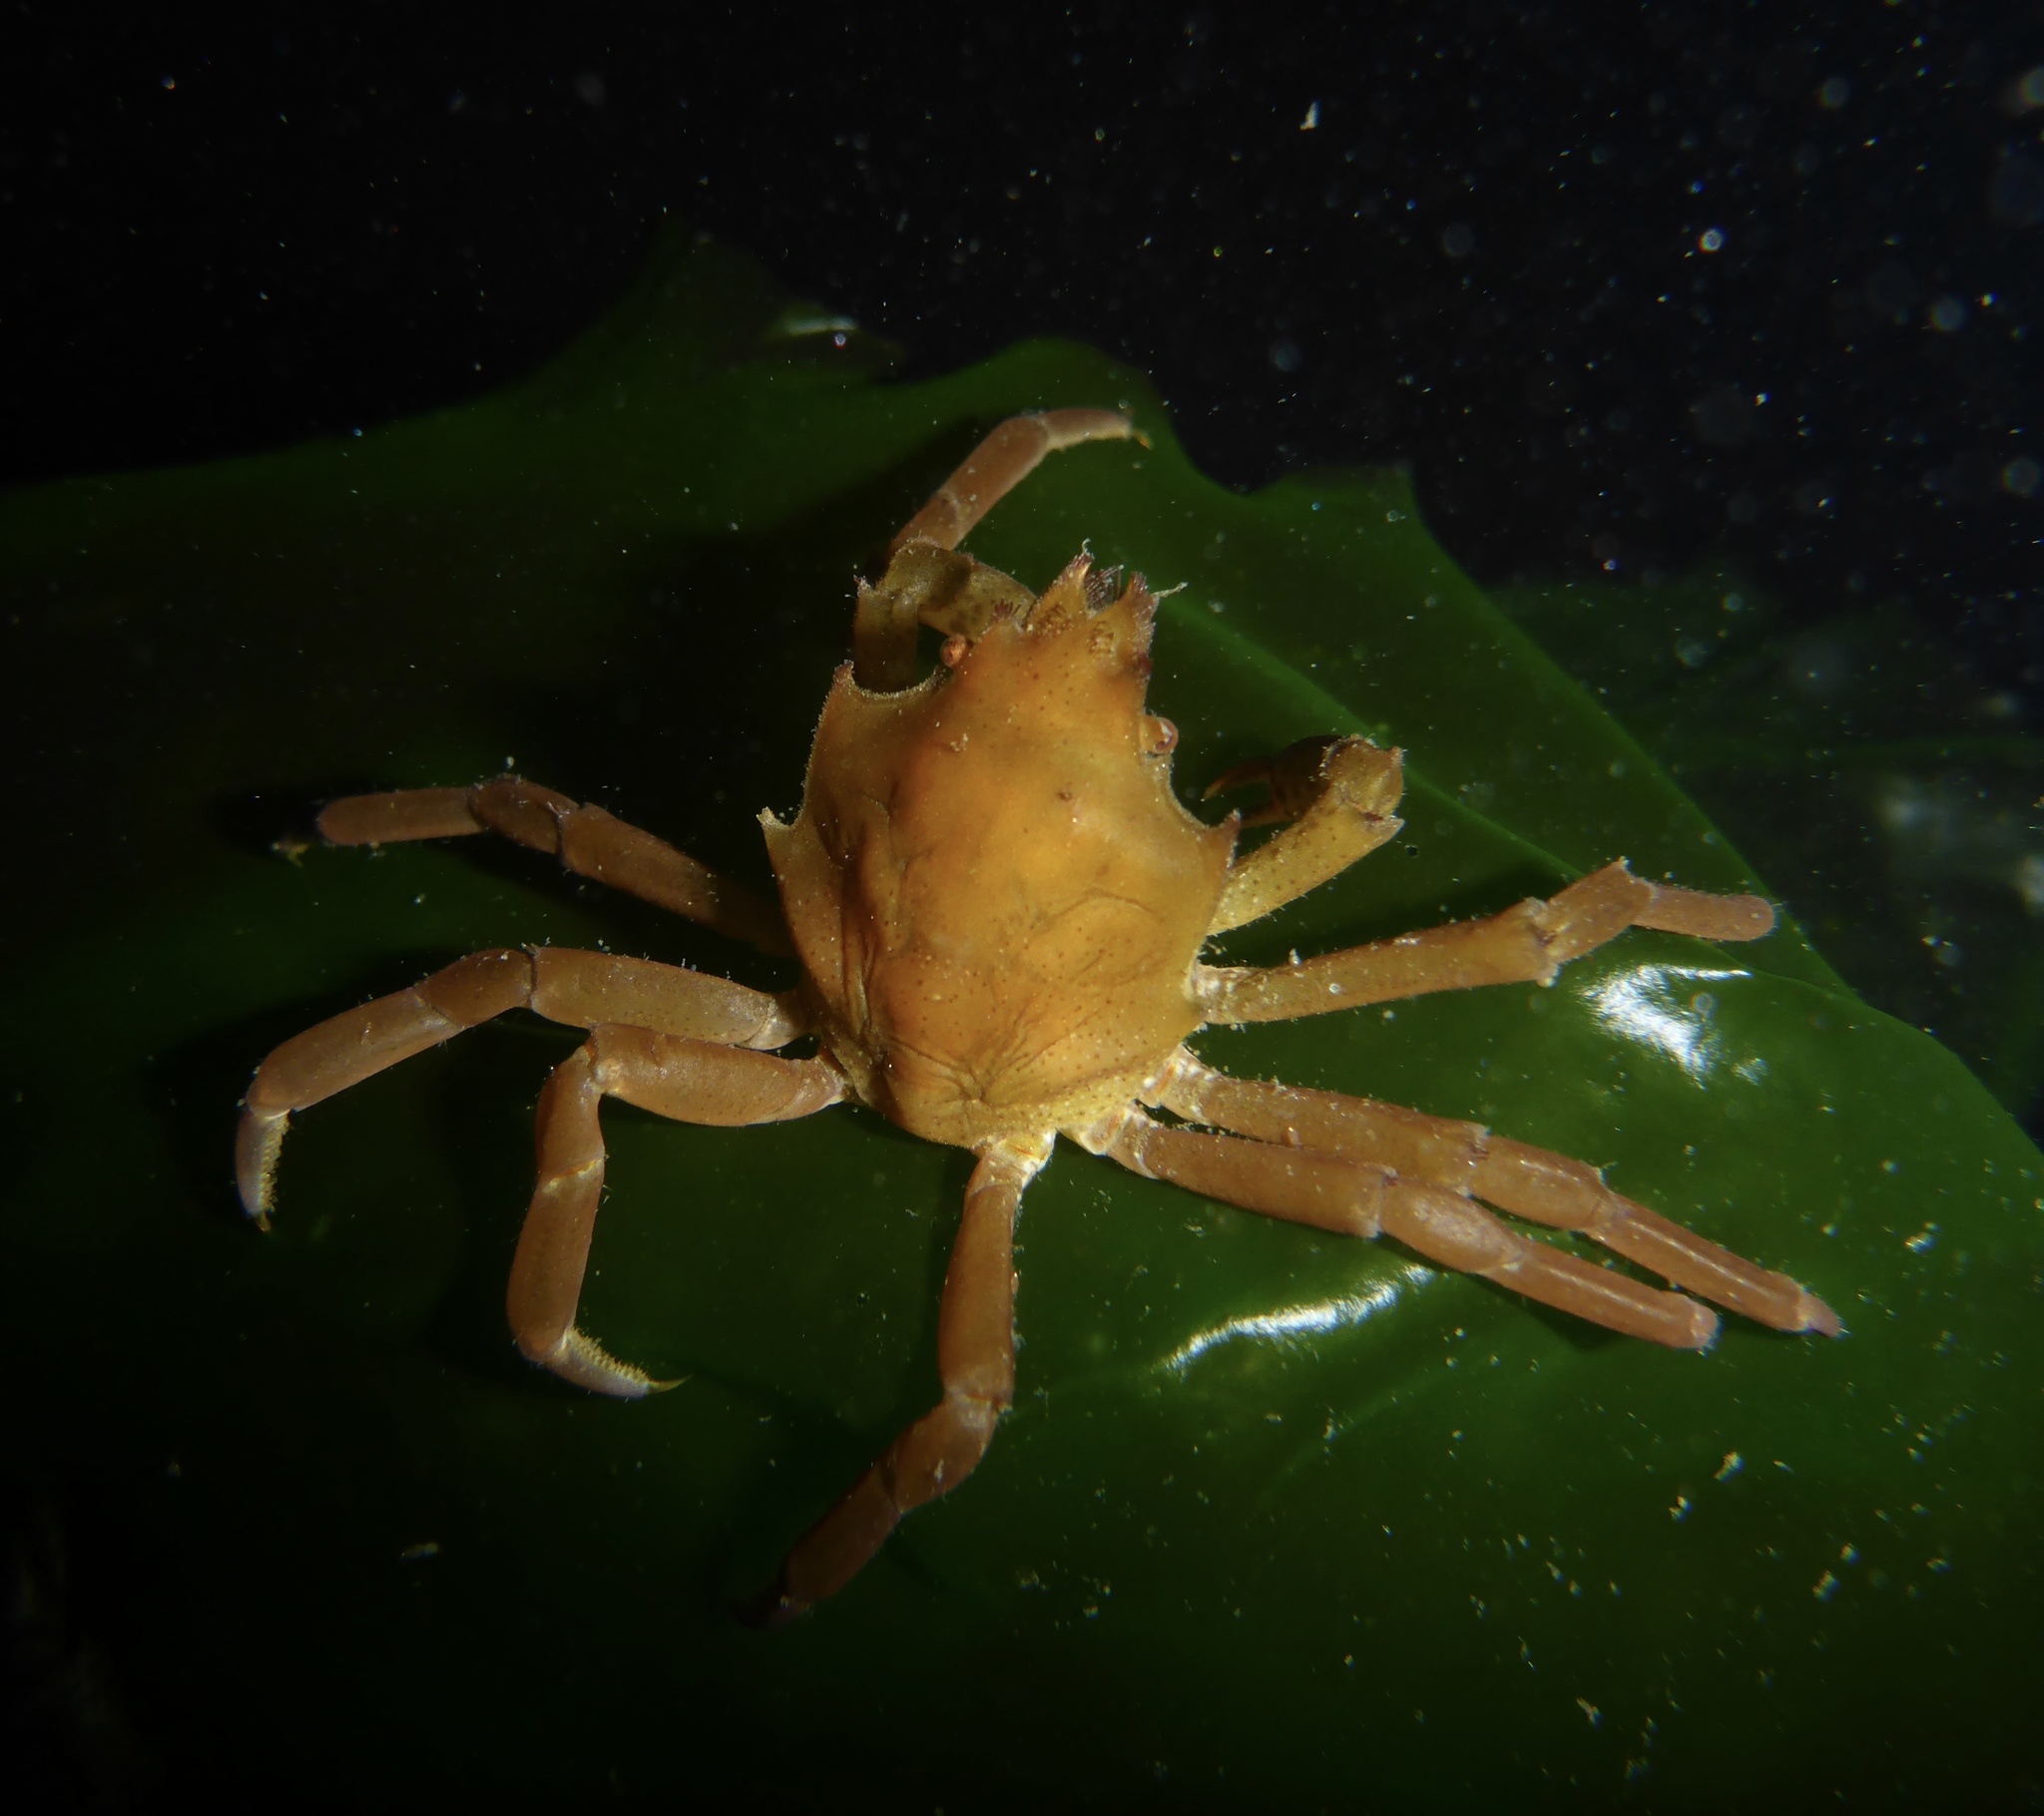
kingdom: Animalia
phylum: Arthropoda
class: Malacostraca
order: Decapoda
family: Epialtidae
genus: Pugettia
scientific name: Pugettia producta
